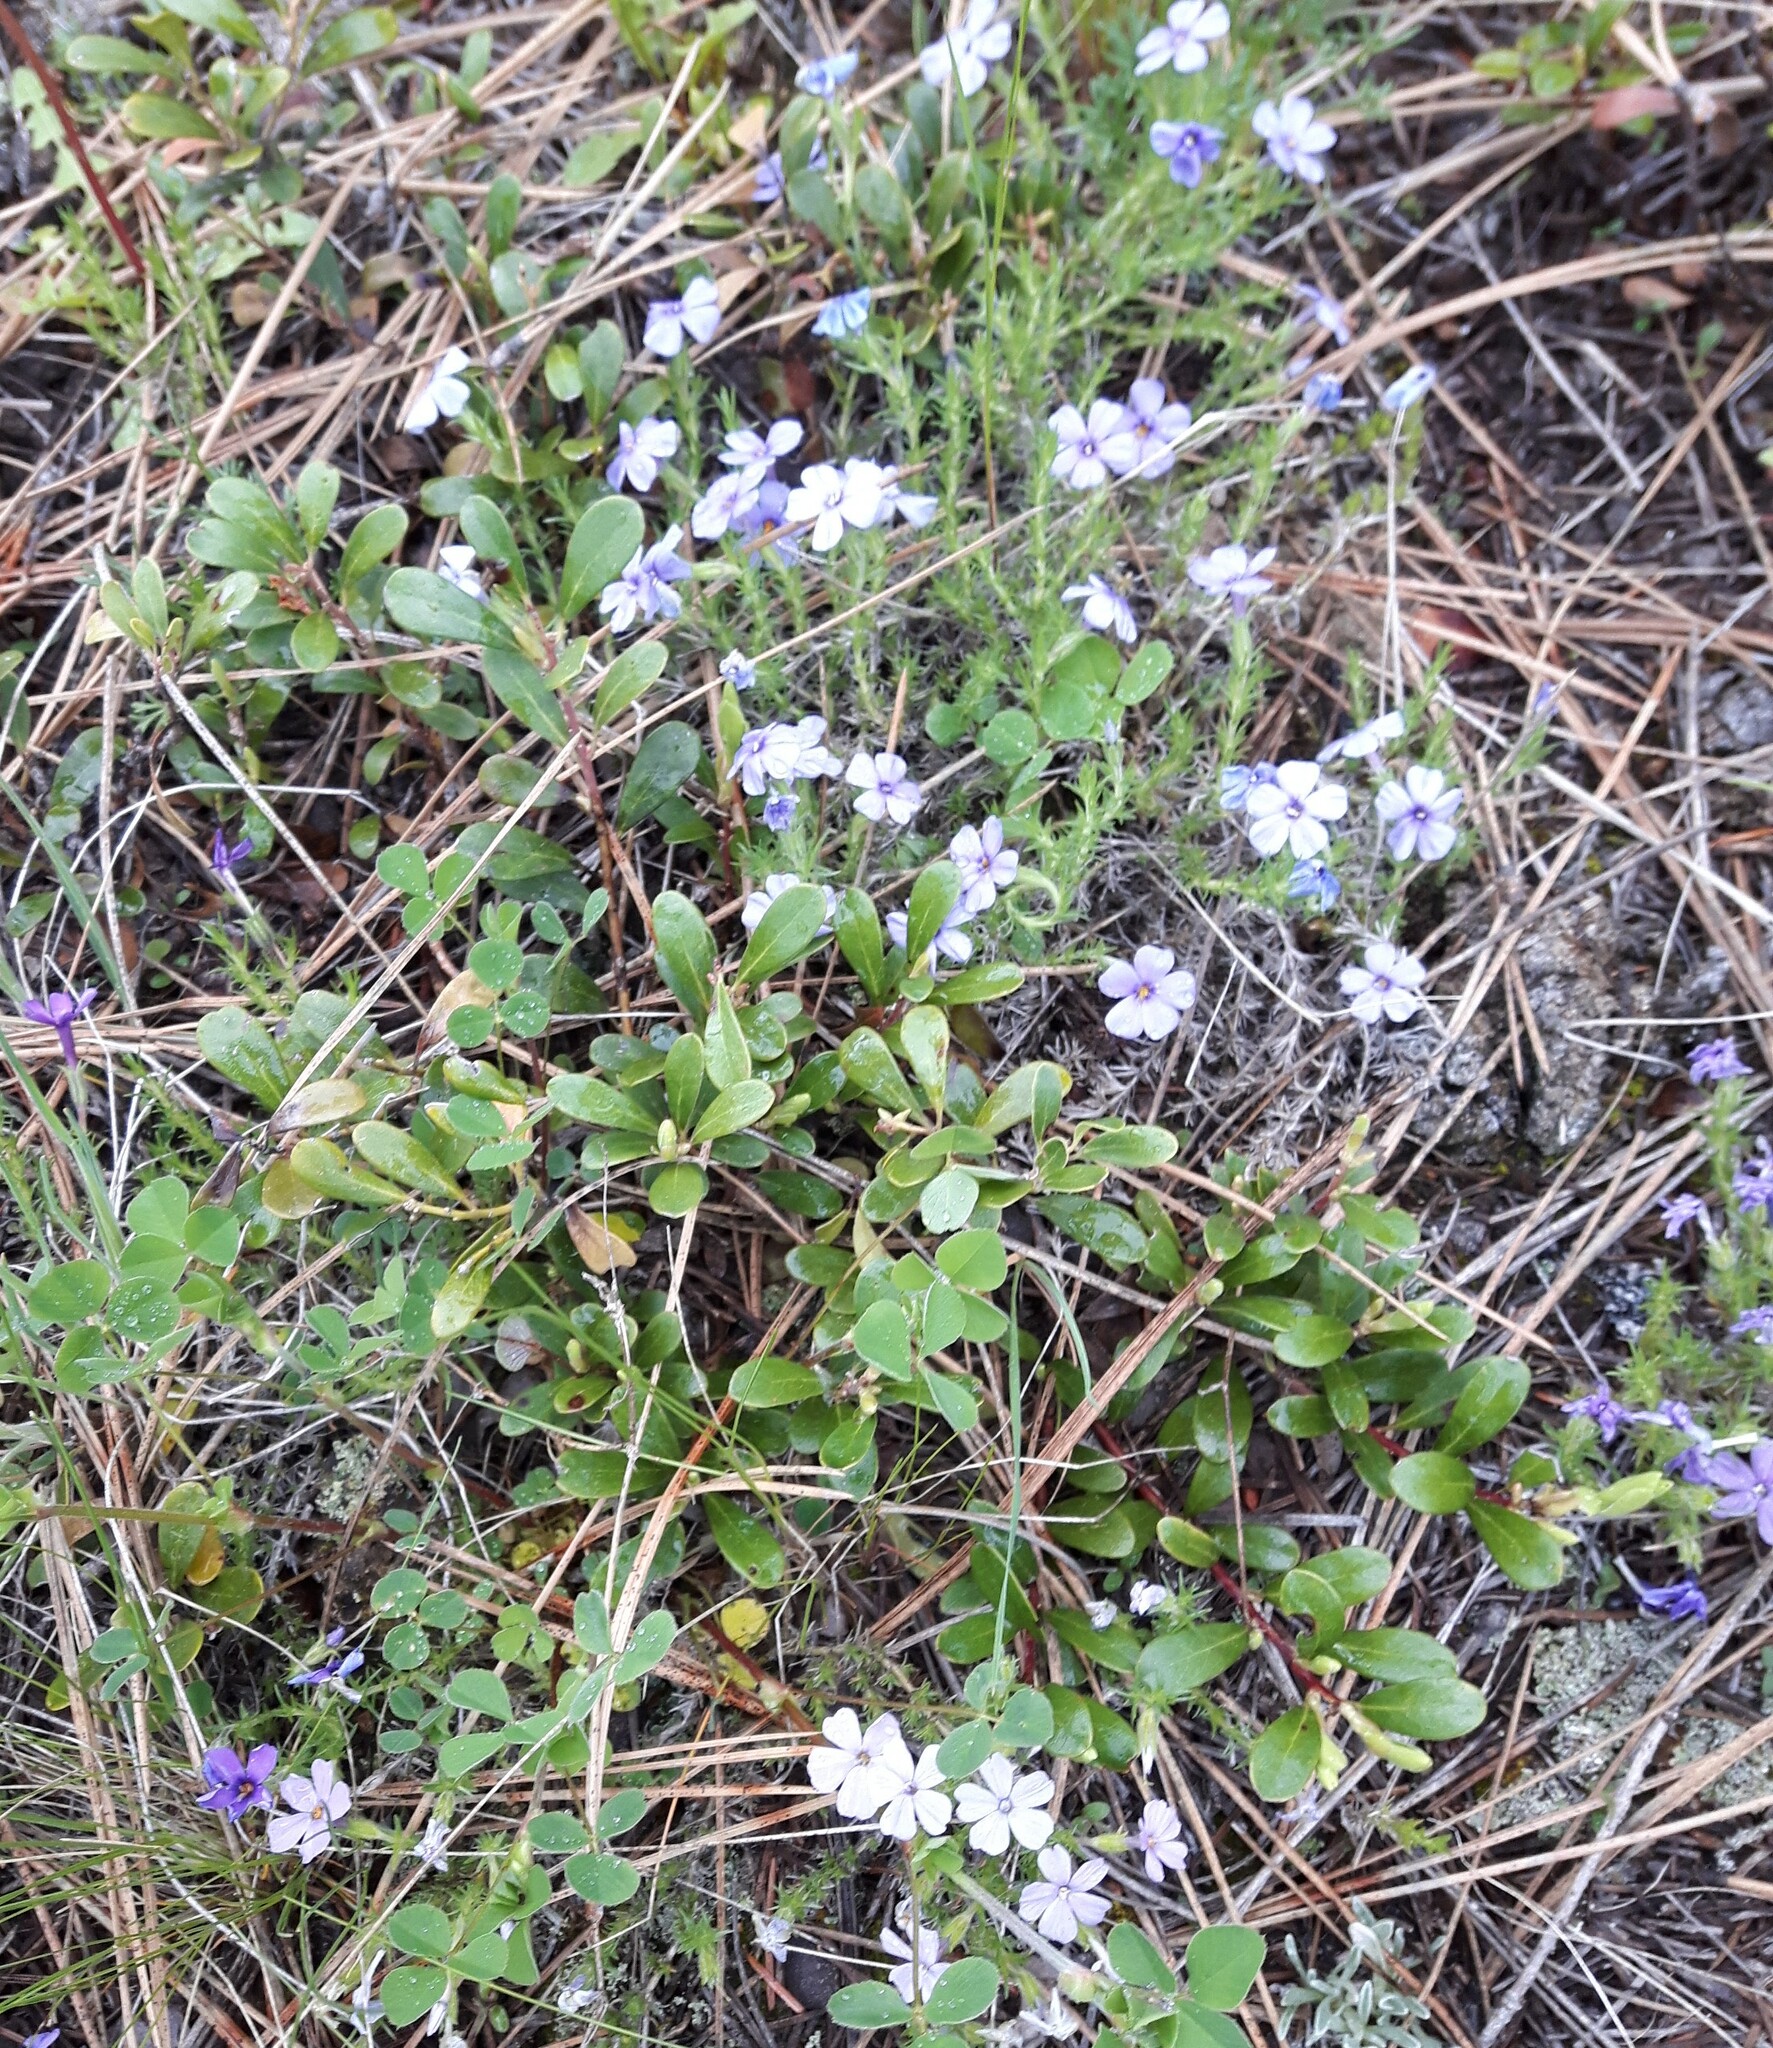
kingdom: Plantae
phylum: Tracheophyta
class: Magnoliopsida
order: Ericales
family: Polemoniaceae
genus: Phlox
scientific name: Phlox caespitosa
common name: Cushion phlox
